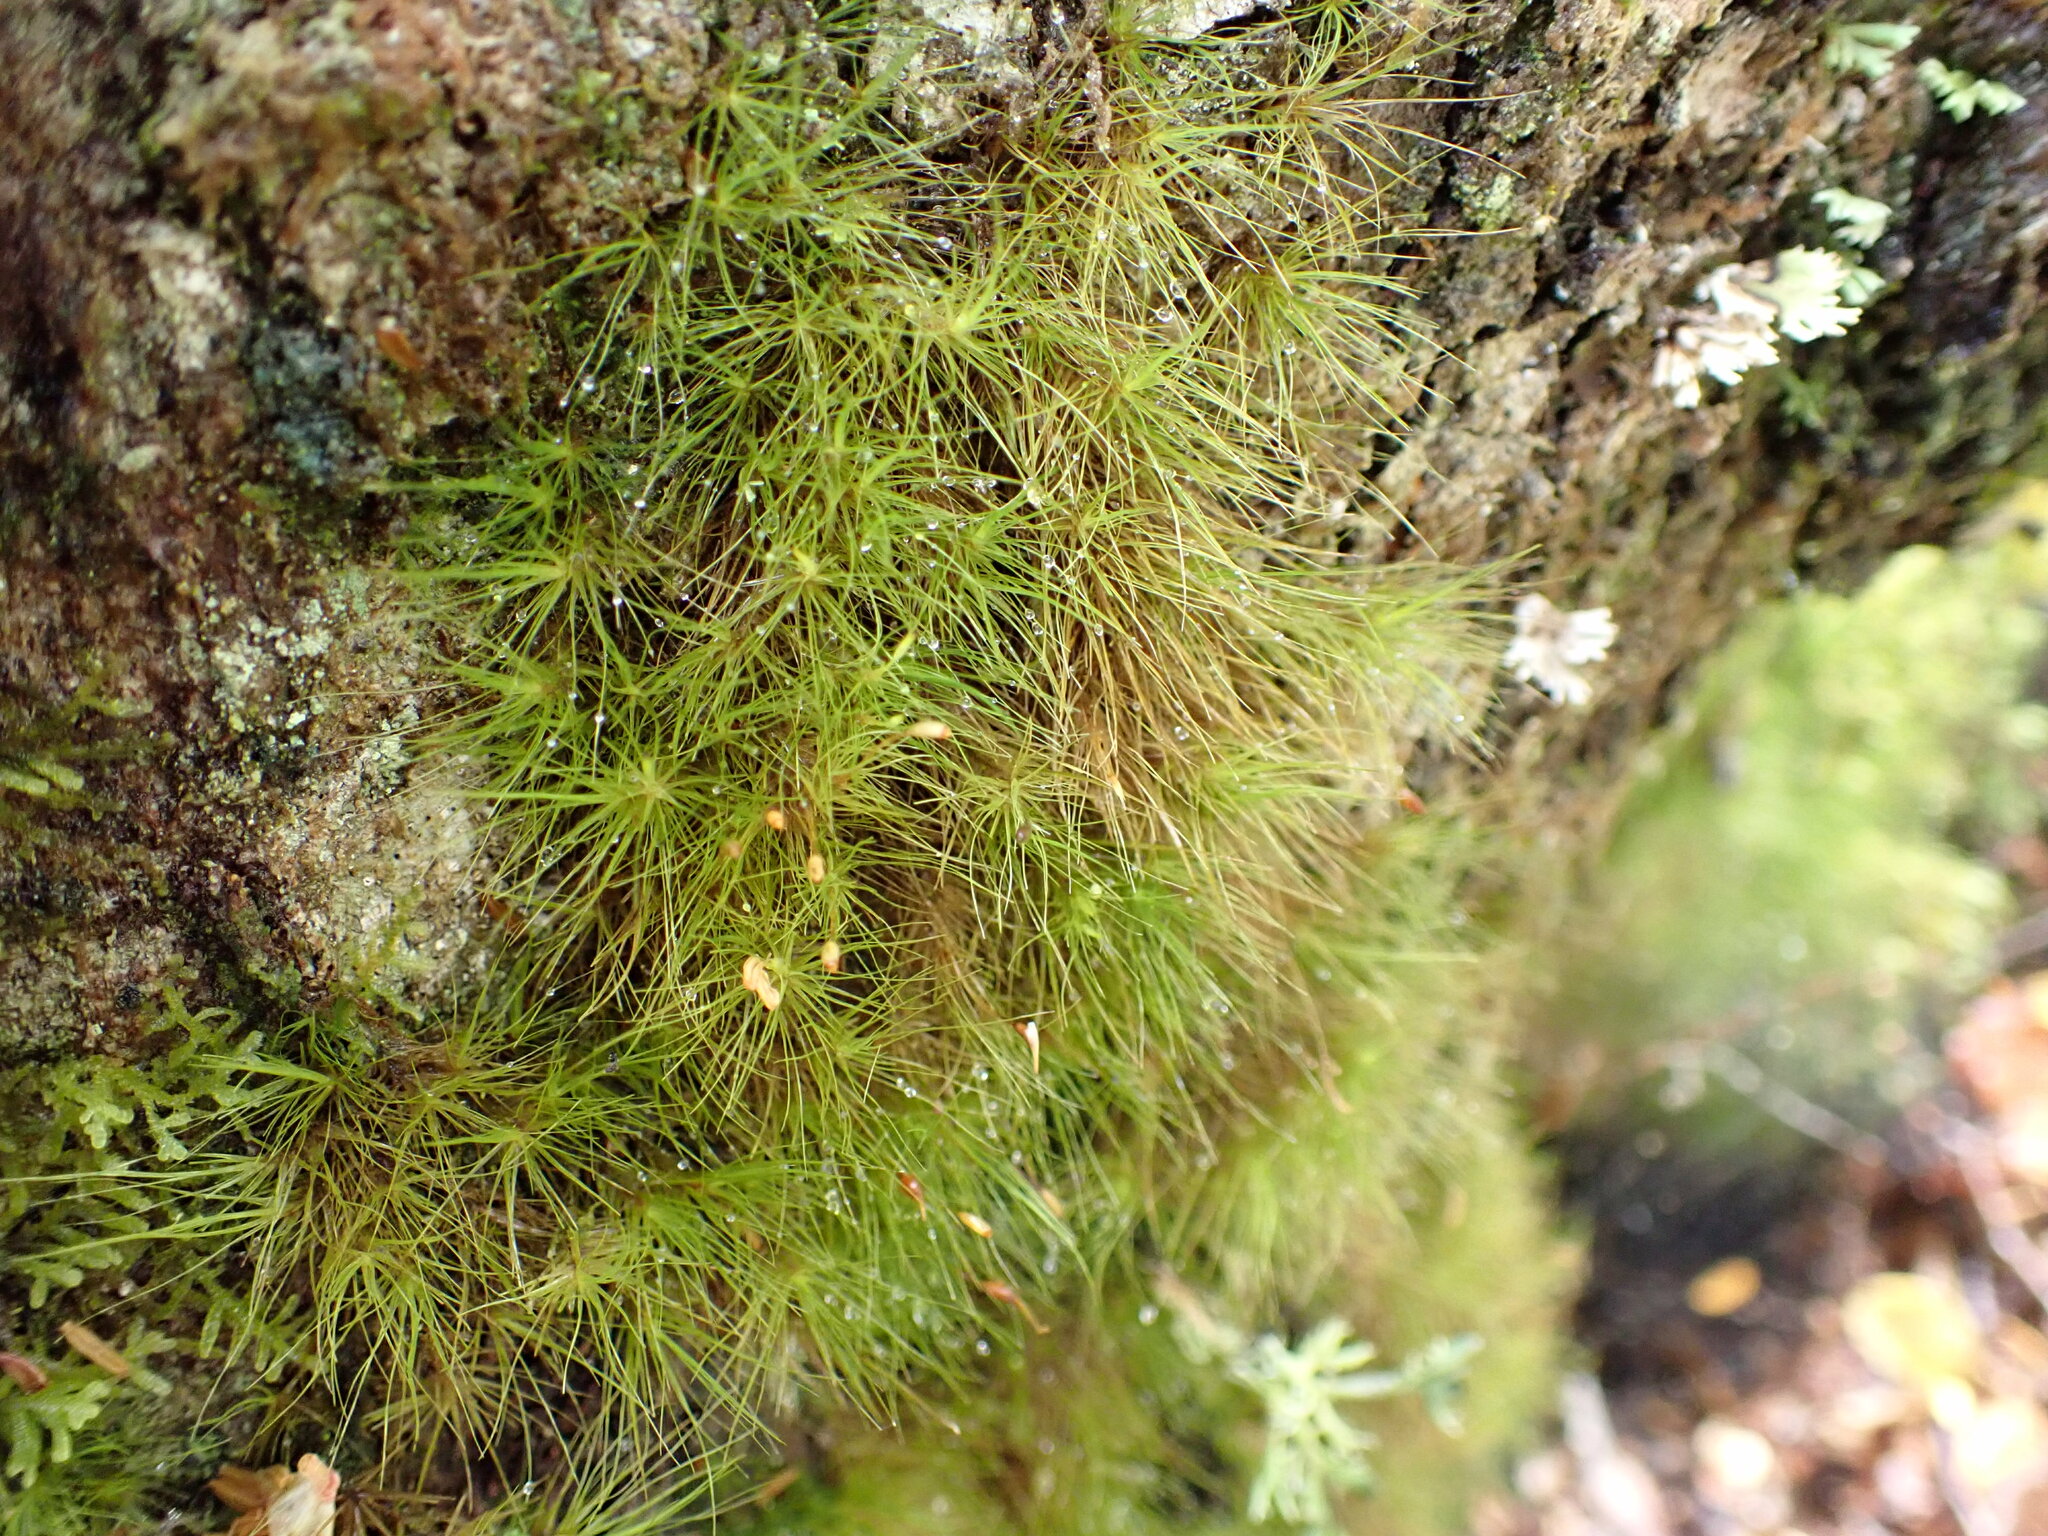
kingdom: Plantae
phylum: Bryophyta
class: Bryopsida
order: Dicranales
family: Dicranaceae
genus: Dicranoloma
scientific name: Dicranoloma menziesii
